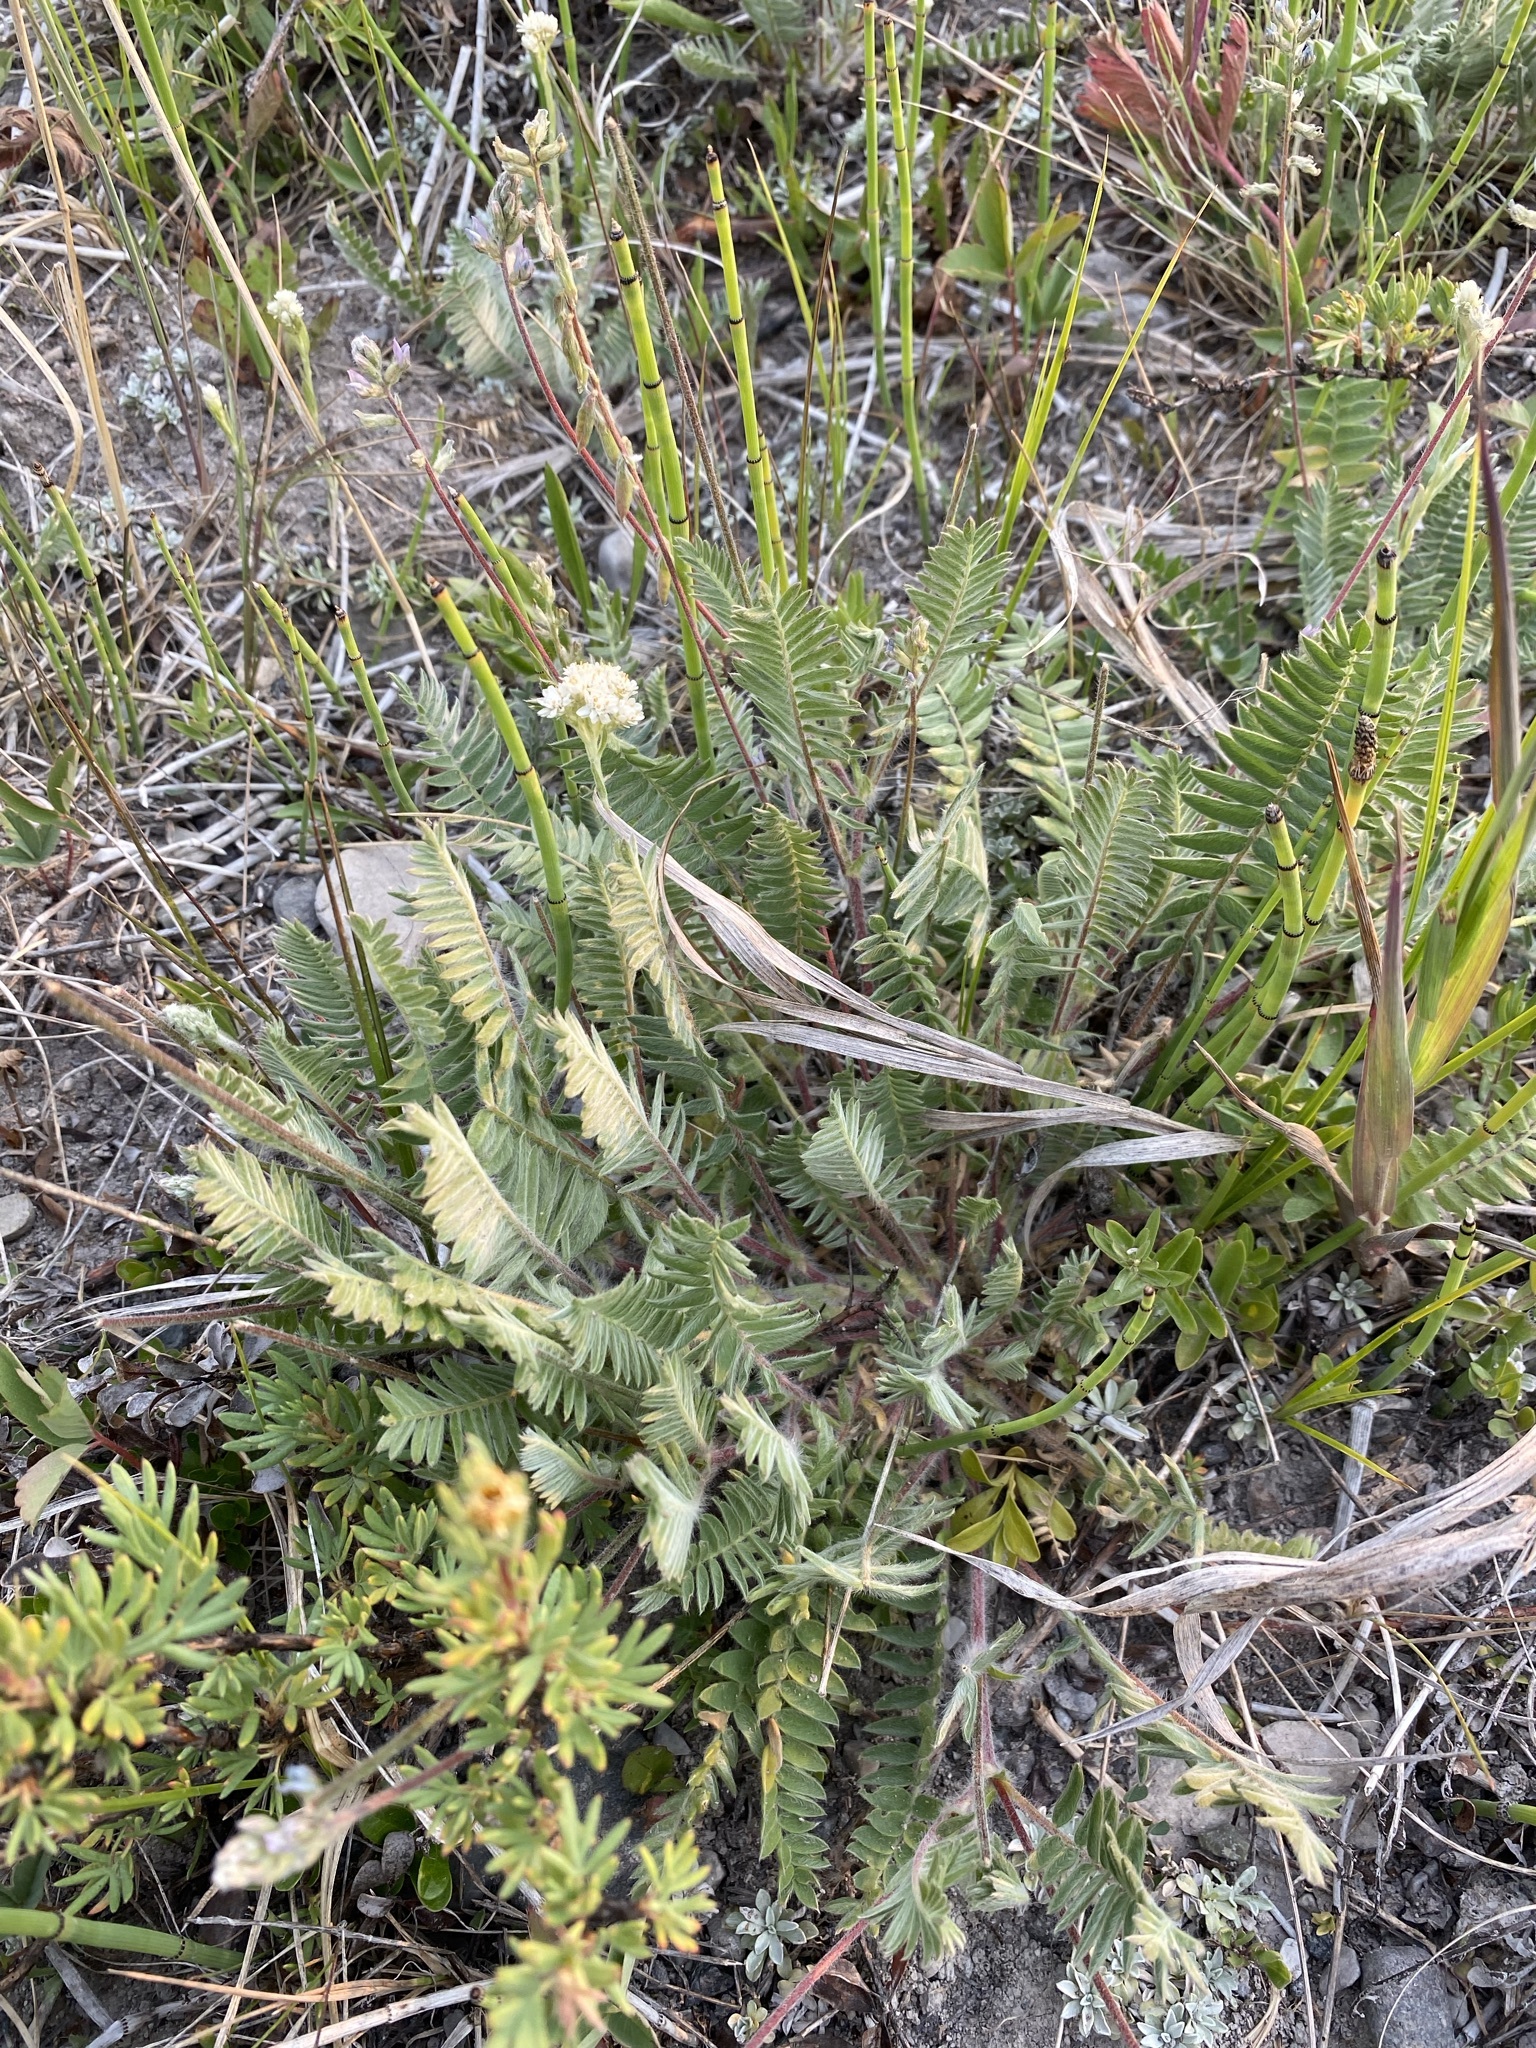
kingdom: Plantae
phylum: Tracheophyta
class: Magnoliopsida
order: Fabales
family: Fabaceae
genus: Oxytropis
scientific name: Oxytropis deflexa
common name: Stemmed oxytrope
